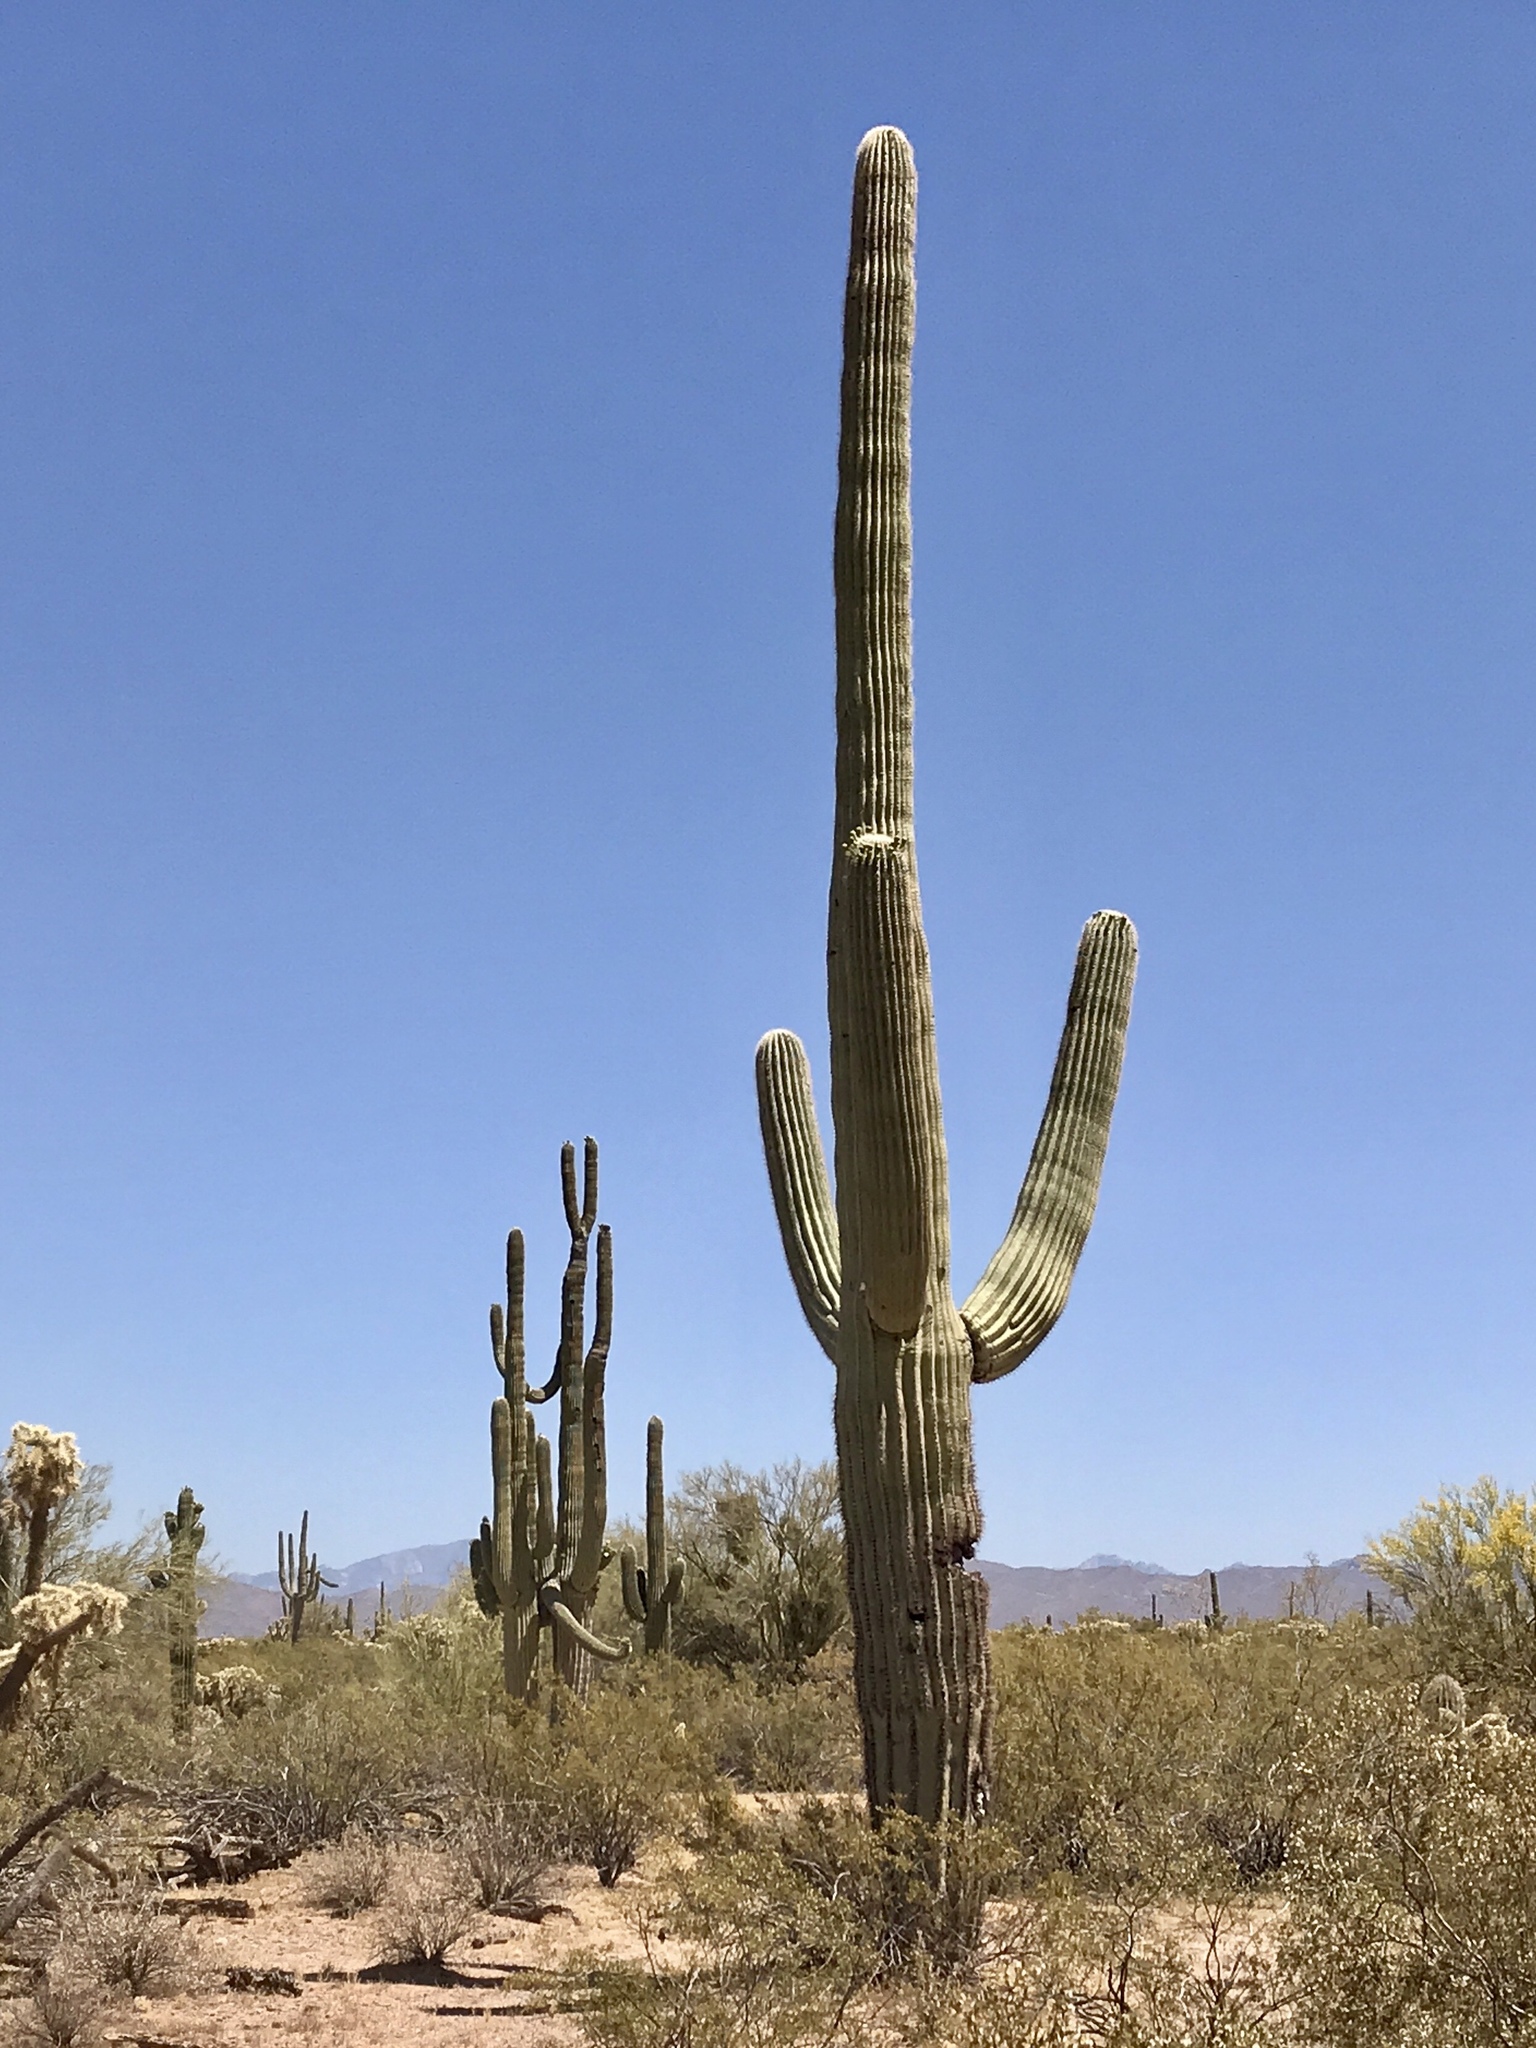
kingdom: Plantae
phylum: Tracheophyta
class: Magnoliopsida
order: Caryophyllales
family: Cactaceae
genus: Carnegiea
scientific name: Carnegiea gigantea
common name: Saguaro
